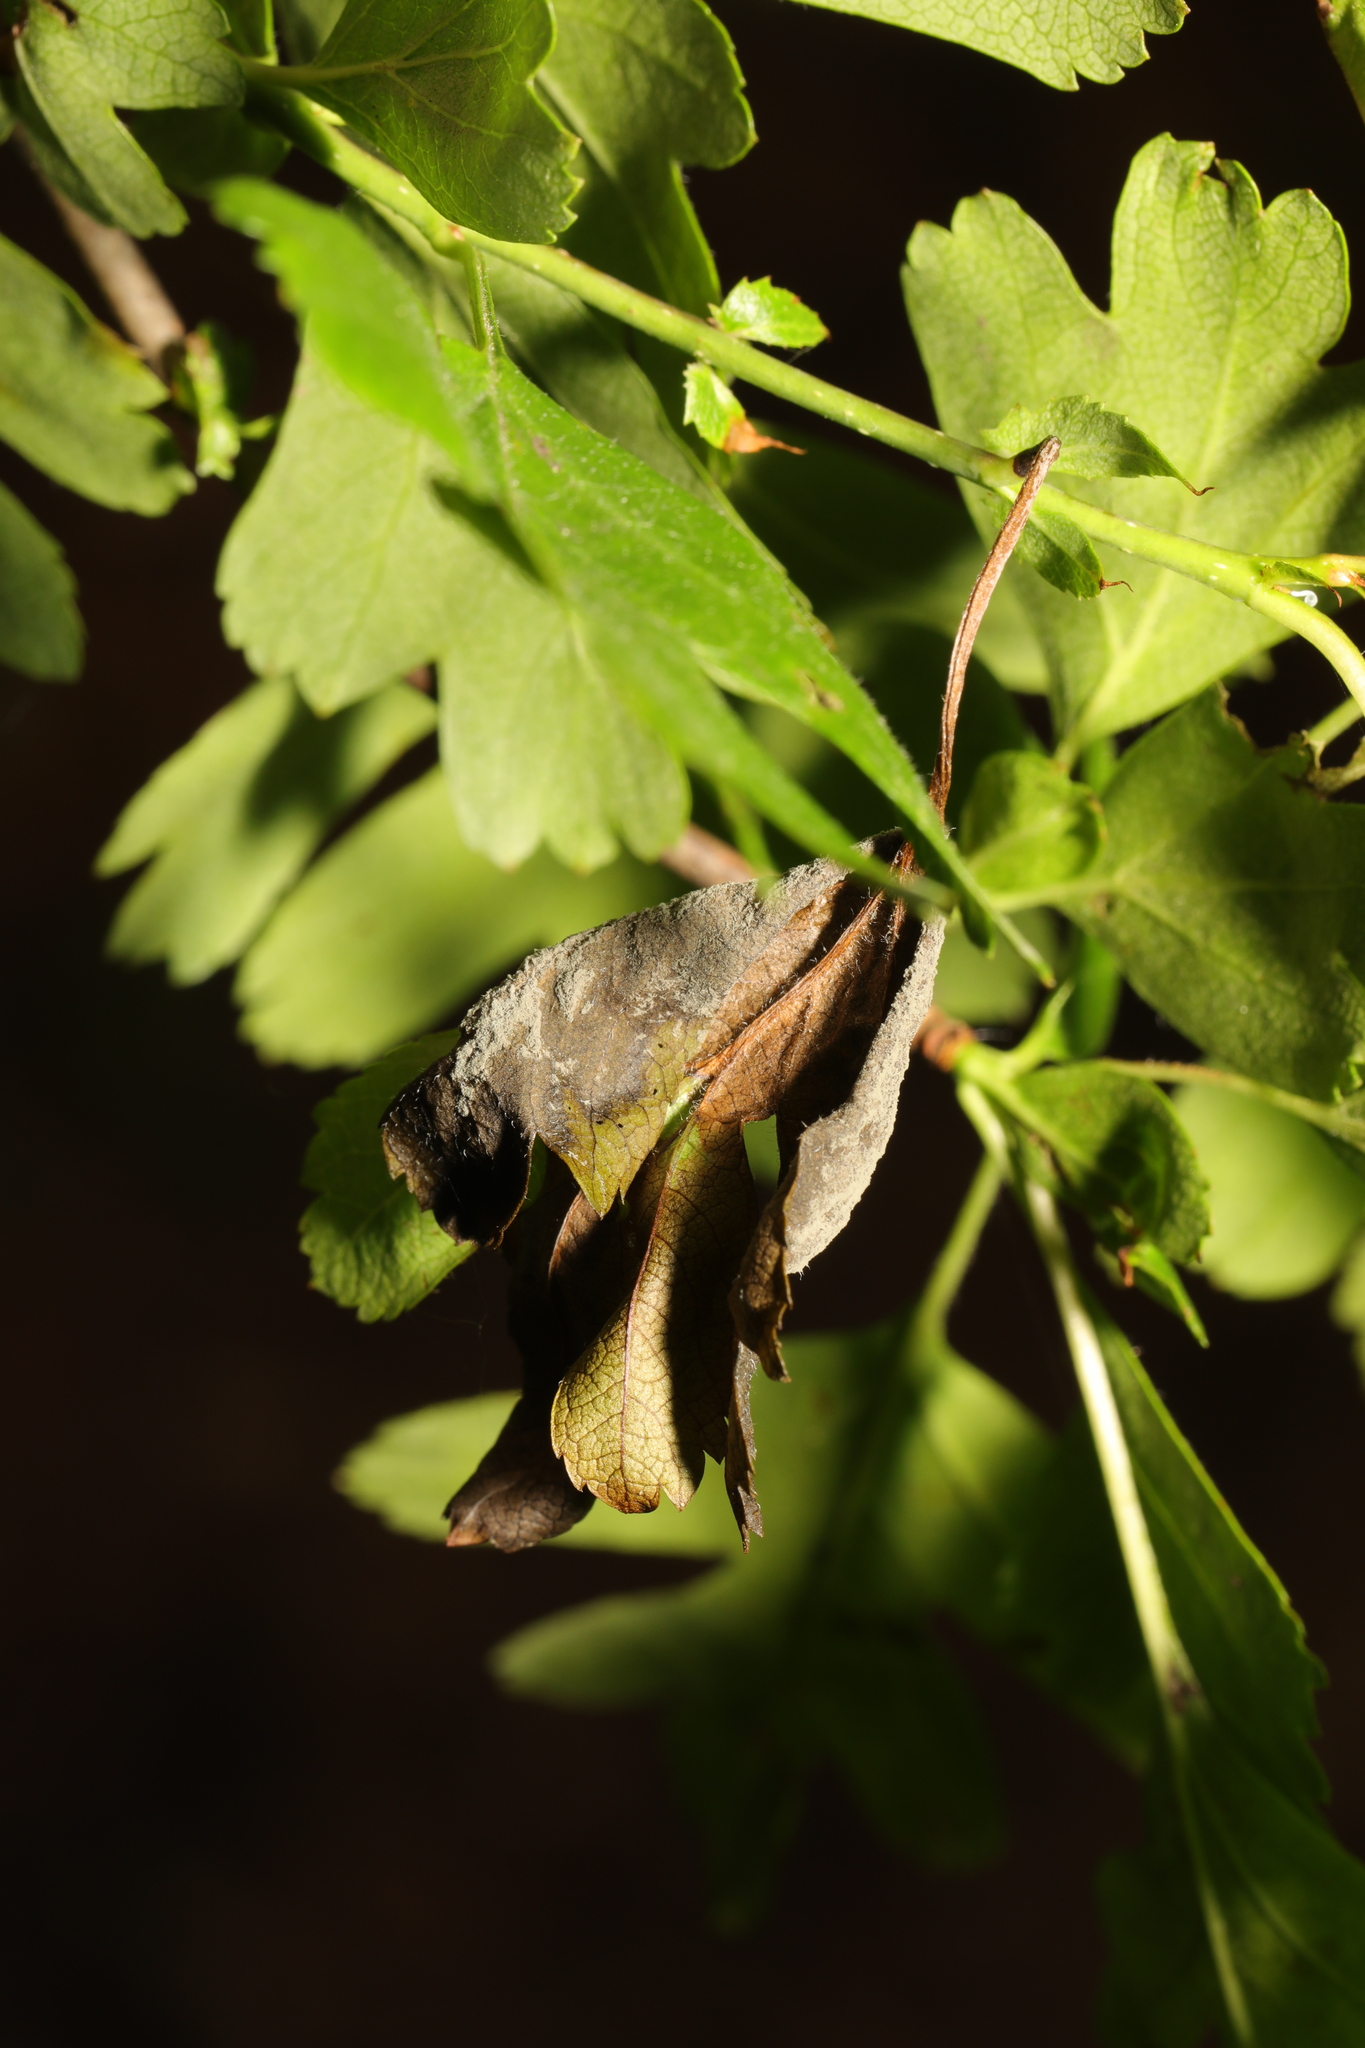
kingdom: Fungi
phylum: Ascomycota
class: Leotiomycetes
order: Helotiales
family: Sclerotiniaceae
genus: Monilinia
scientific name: Monilinia johnsonii
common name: Haw goblet
